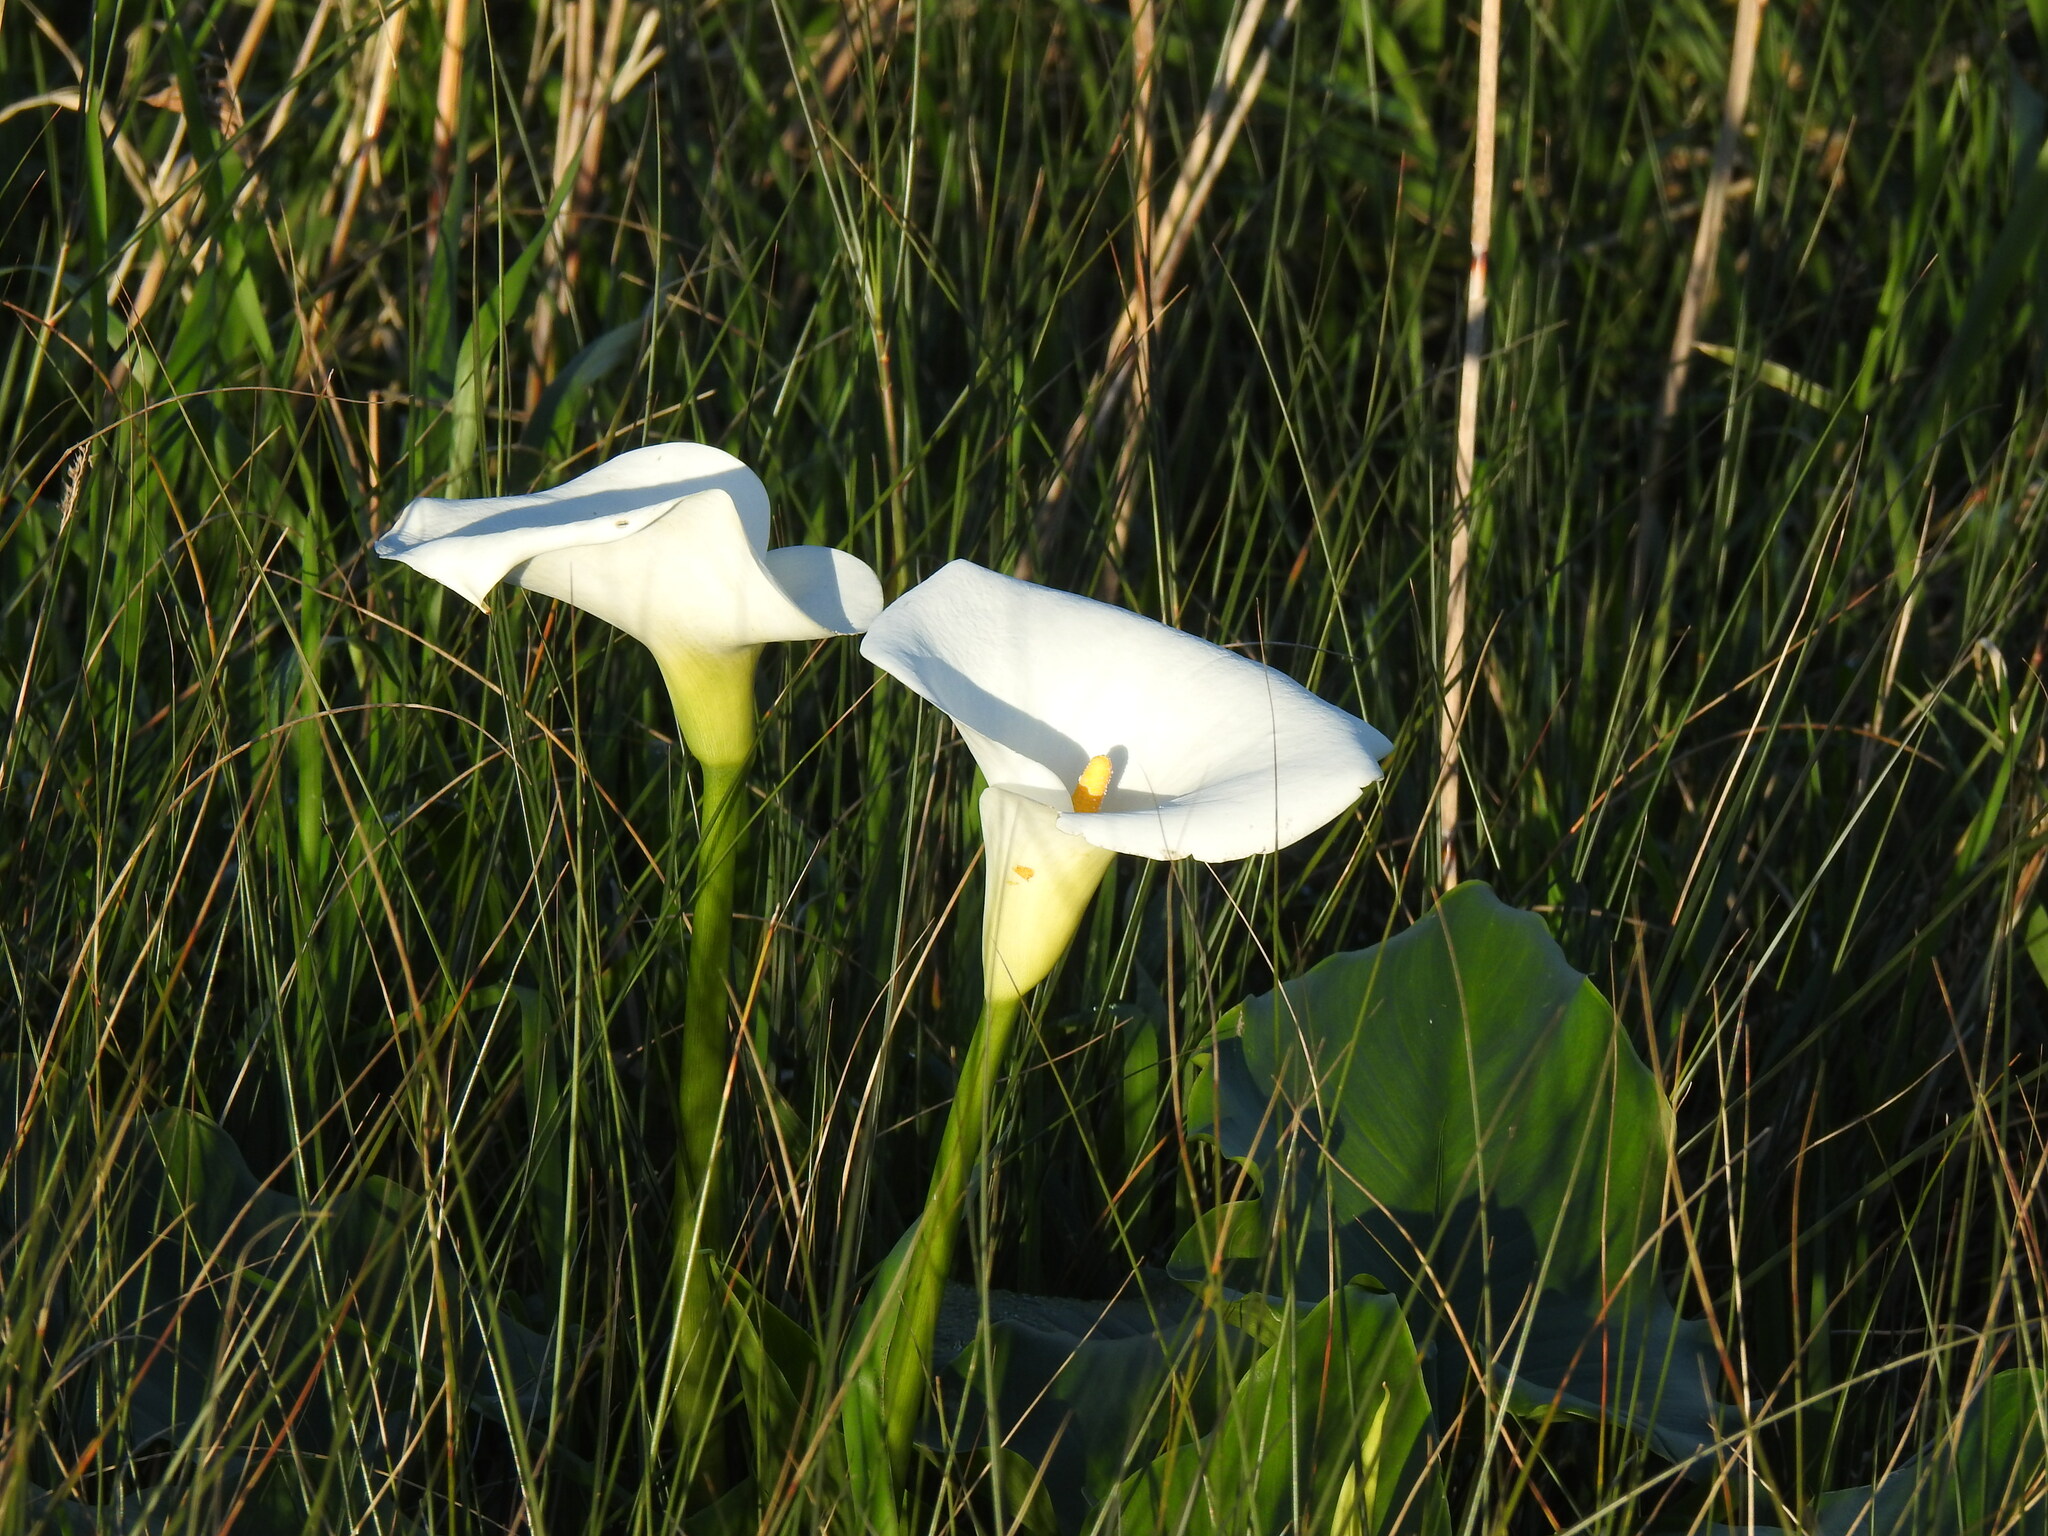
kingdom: Plantae
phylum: Tracheophyta
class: Liliopsida
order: Alismatales
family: Araceae
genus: Zantedeschia
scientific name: Zantedeschia aethiopica
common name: Altar-lily
